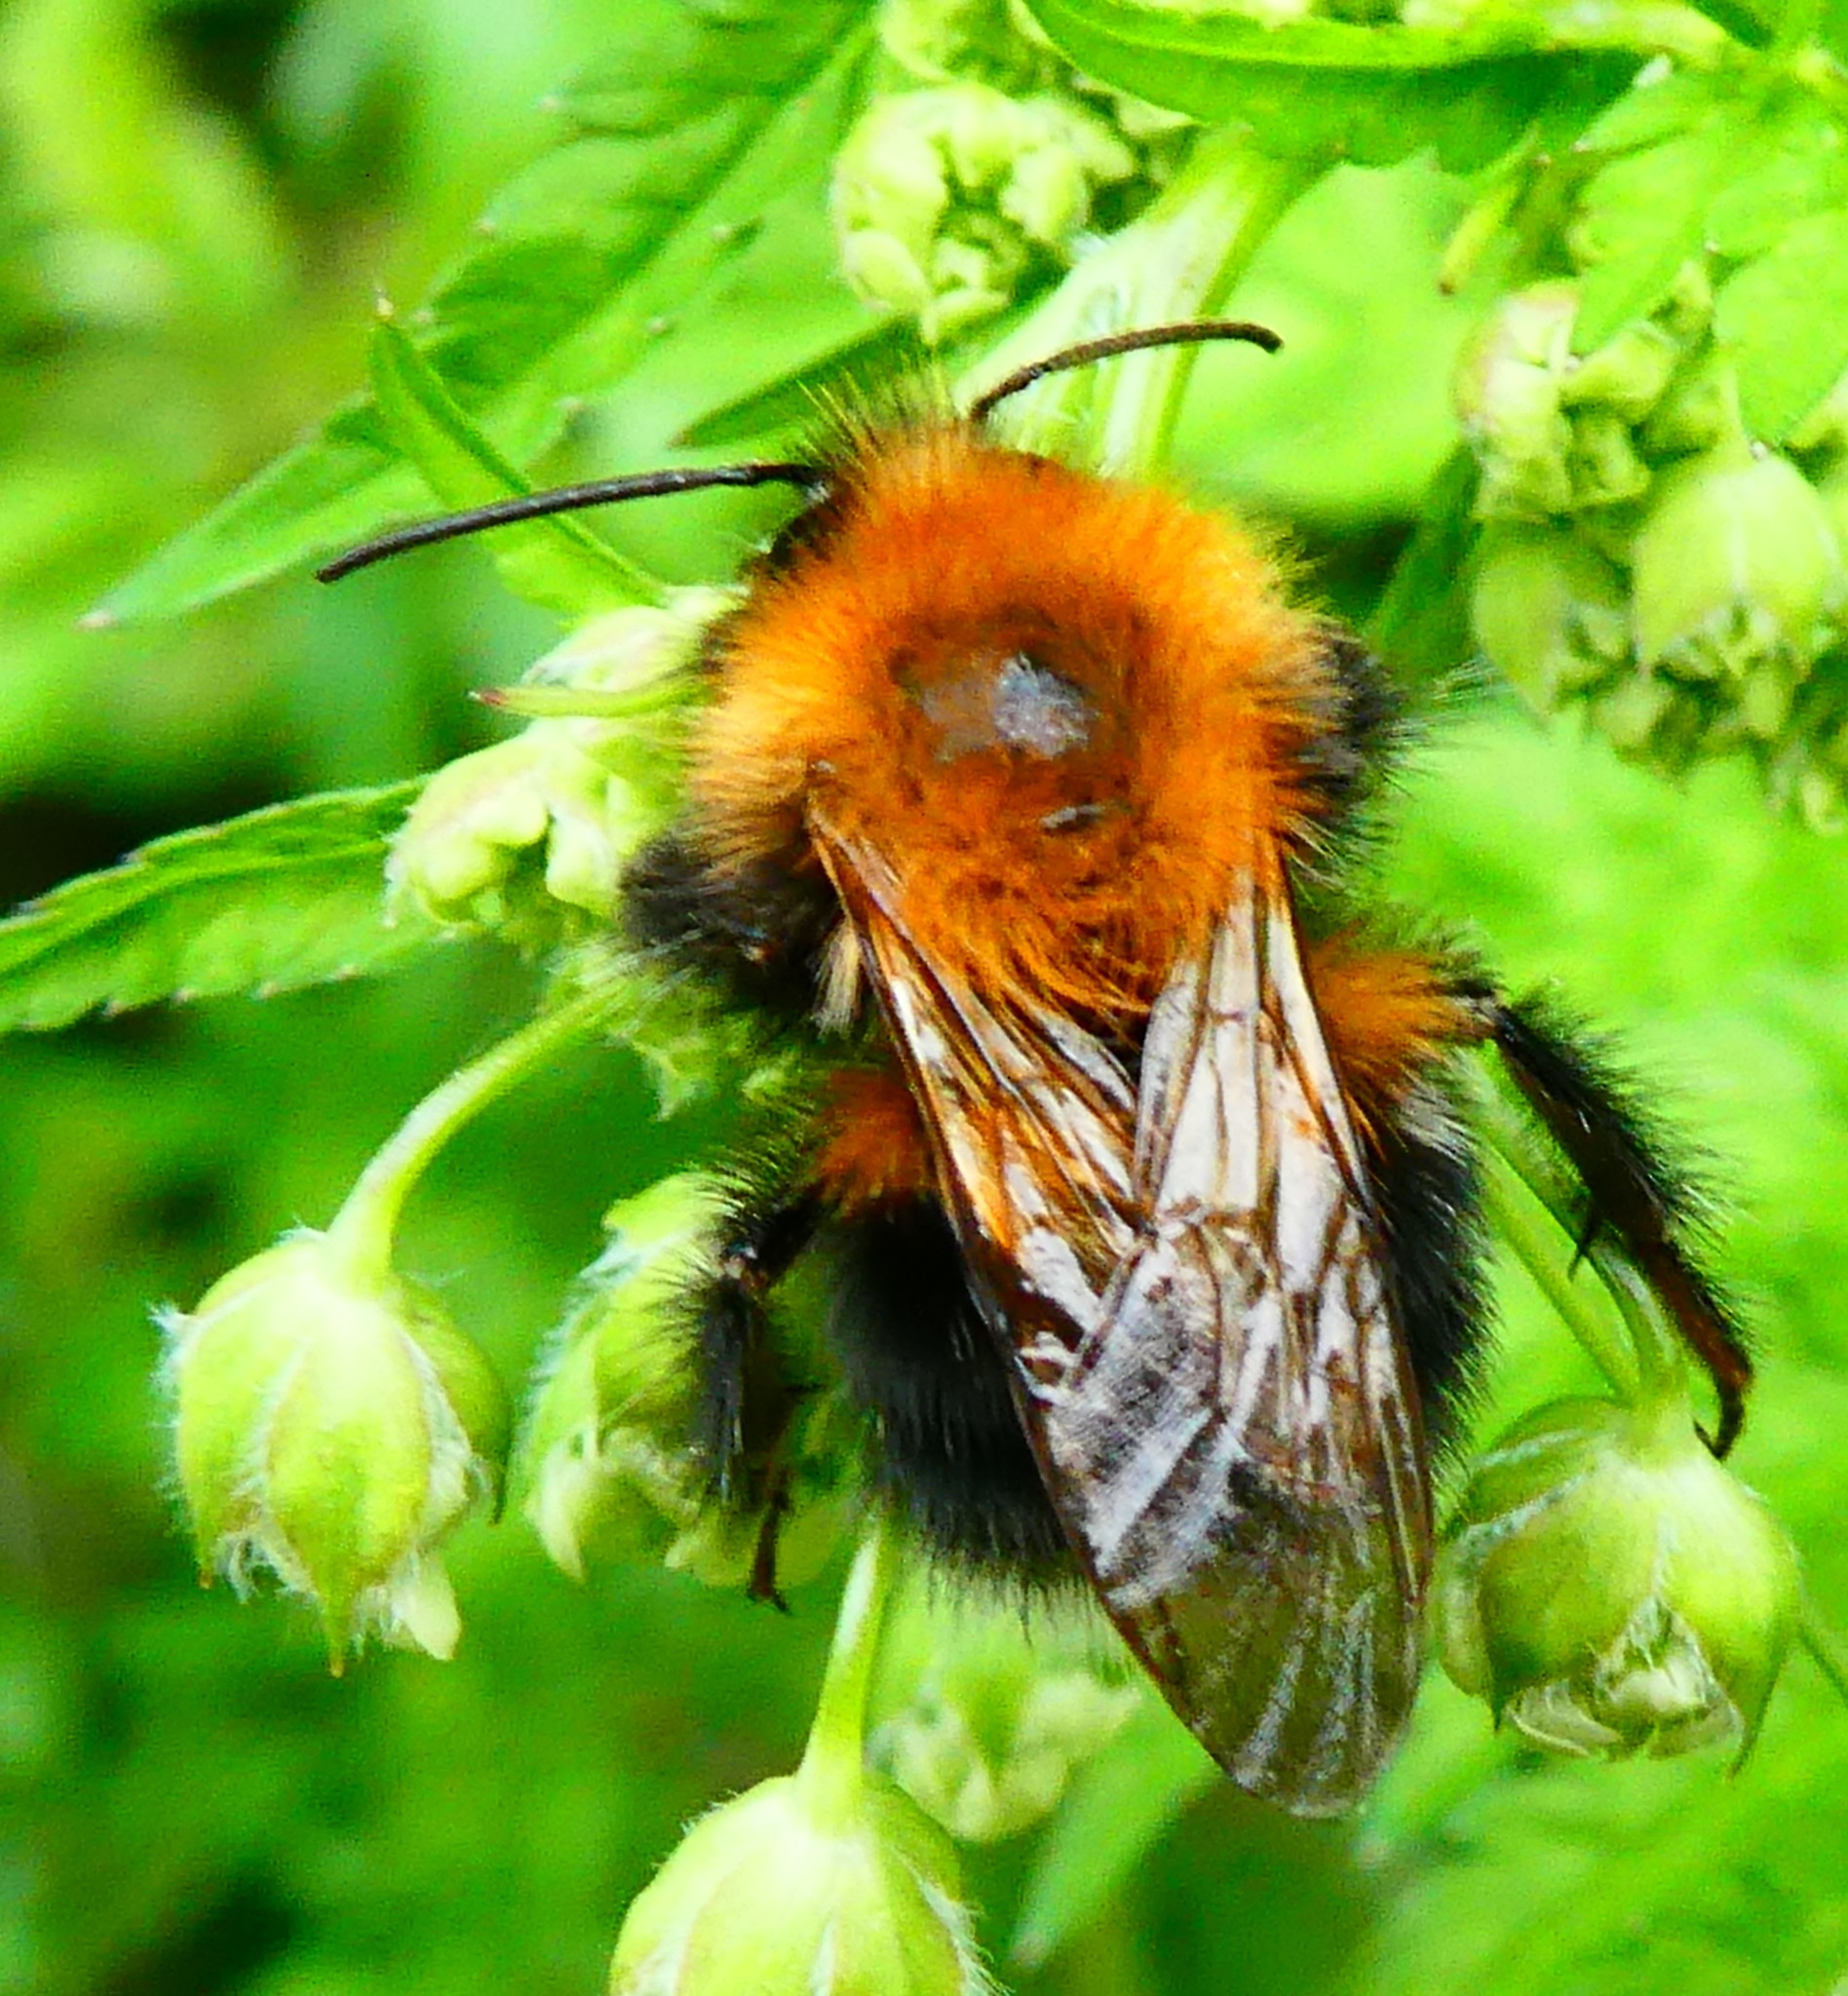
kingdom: Animalia
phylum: Arthropoda
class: Insecta
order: Hymenoptera
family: Apidae
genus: Bombus
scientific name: Bombus hypnorum
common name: New garden bumblebee
